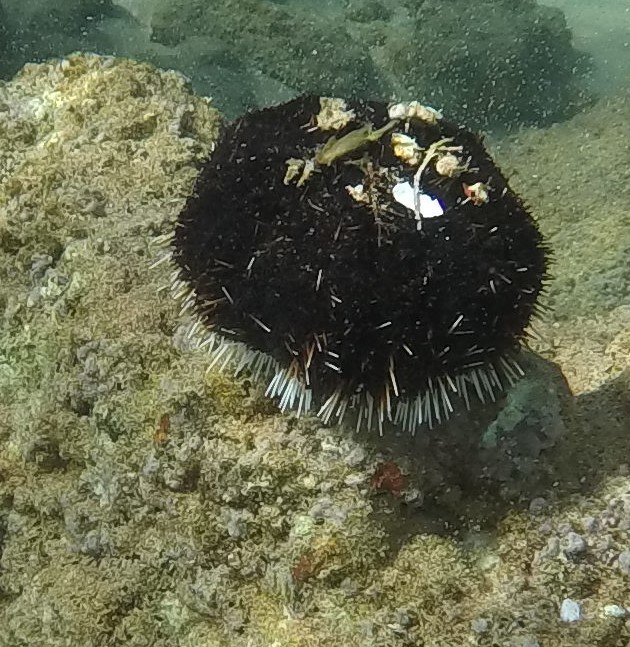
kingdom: Animalia
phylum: Echinodermata
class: Echinoidea
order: Camarodonta
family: Toxopneustidae
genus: Tripneustes
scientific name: Tripneustes gratilla
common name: Bischofsmützenseeigel
